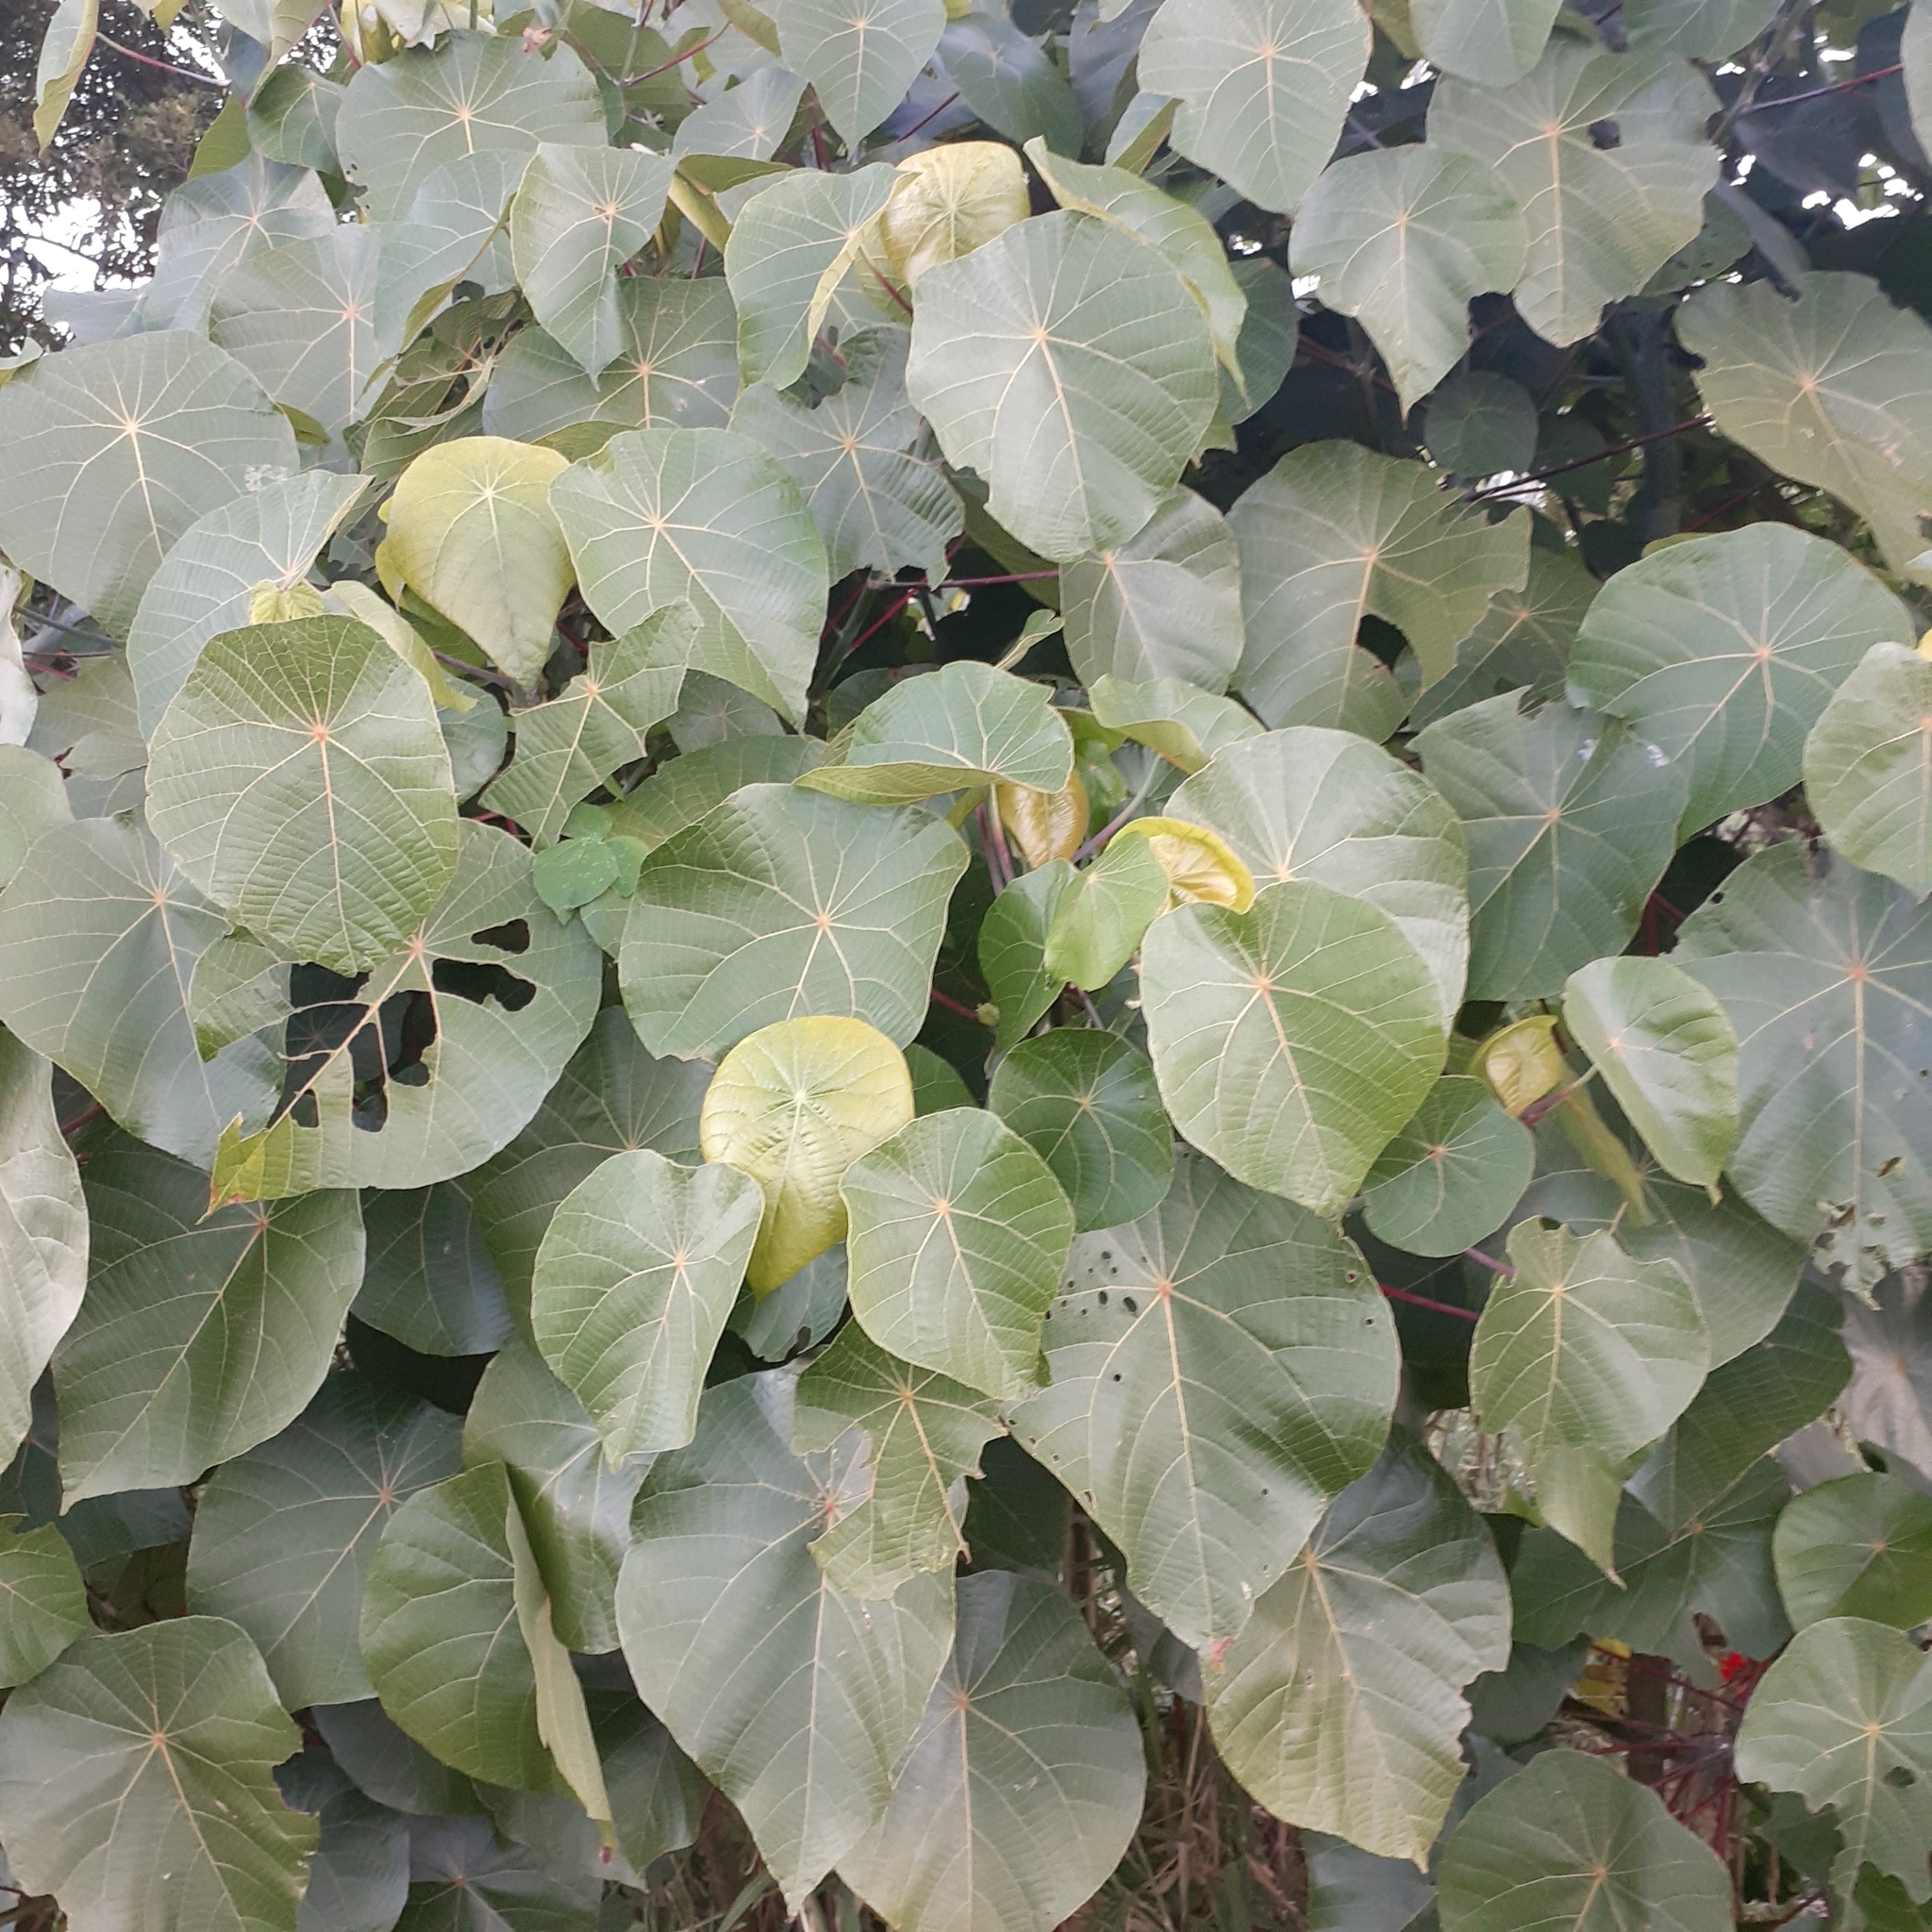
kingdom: Plantae
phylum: Tracheophyta
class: Magnoliopsida
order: Malpighiales
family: Euphorbiaceae
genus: Macaranga
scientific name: Macaranga tanarius
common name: Parasol leaf tree
